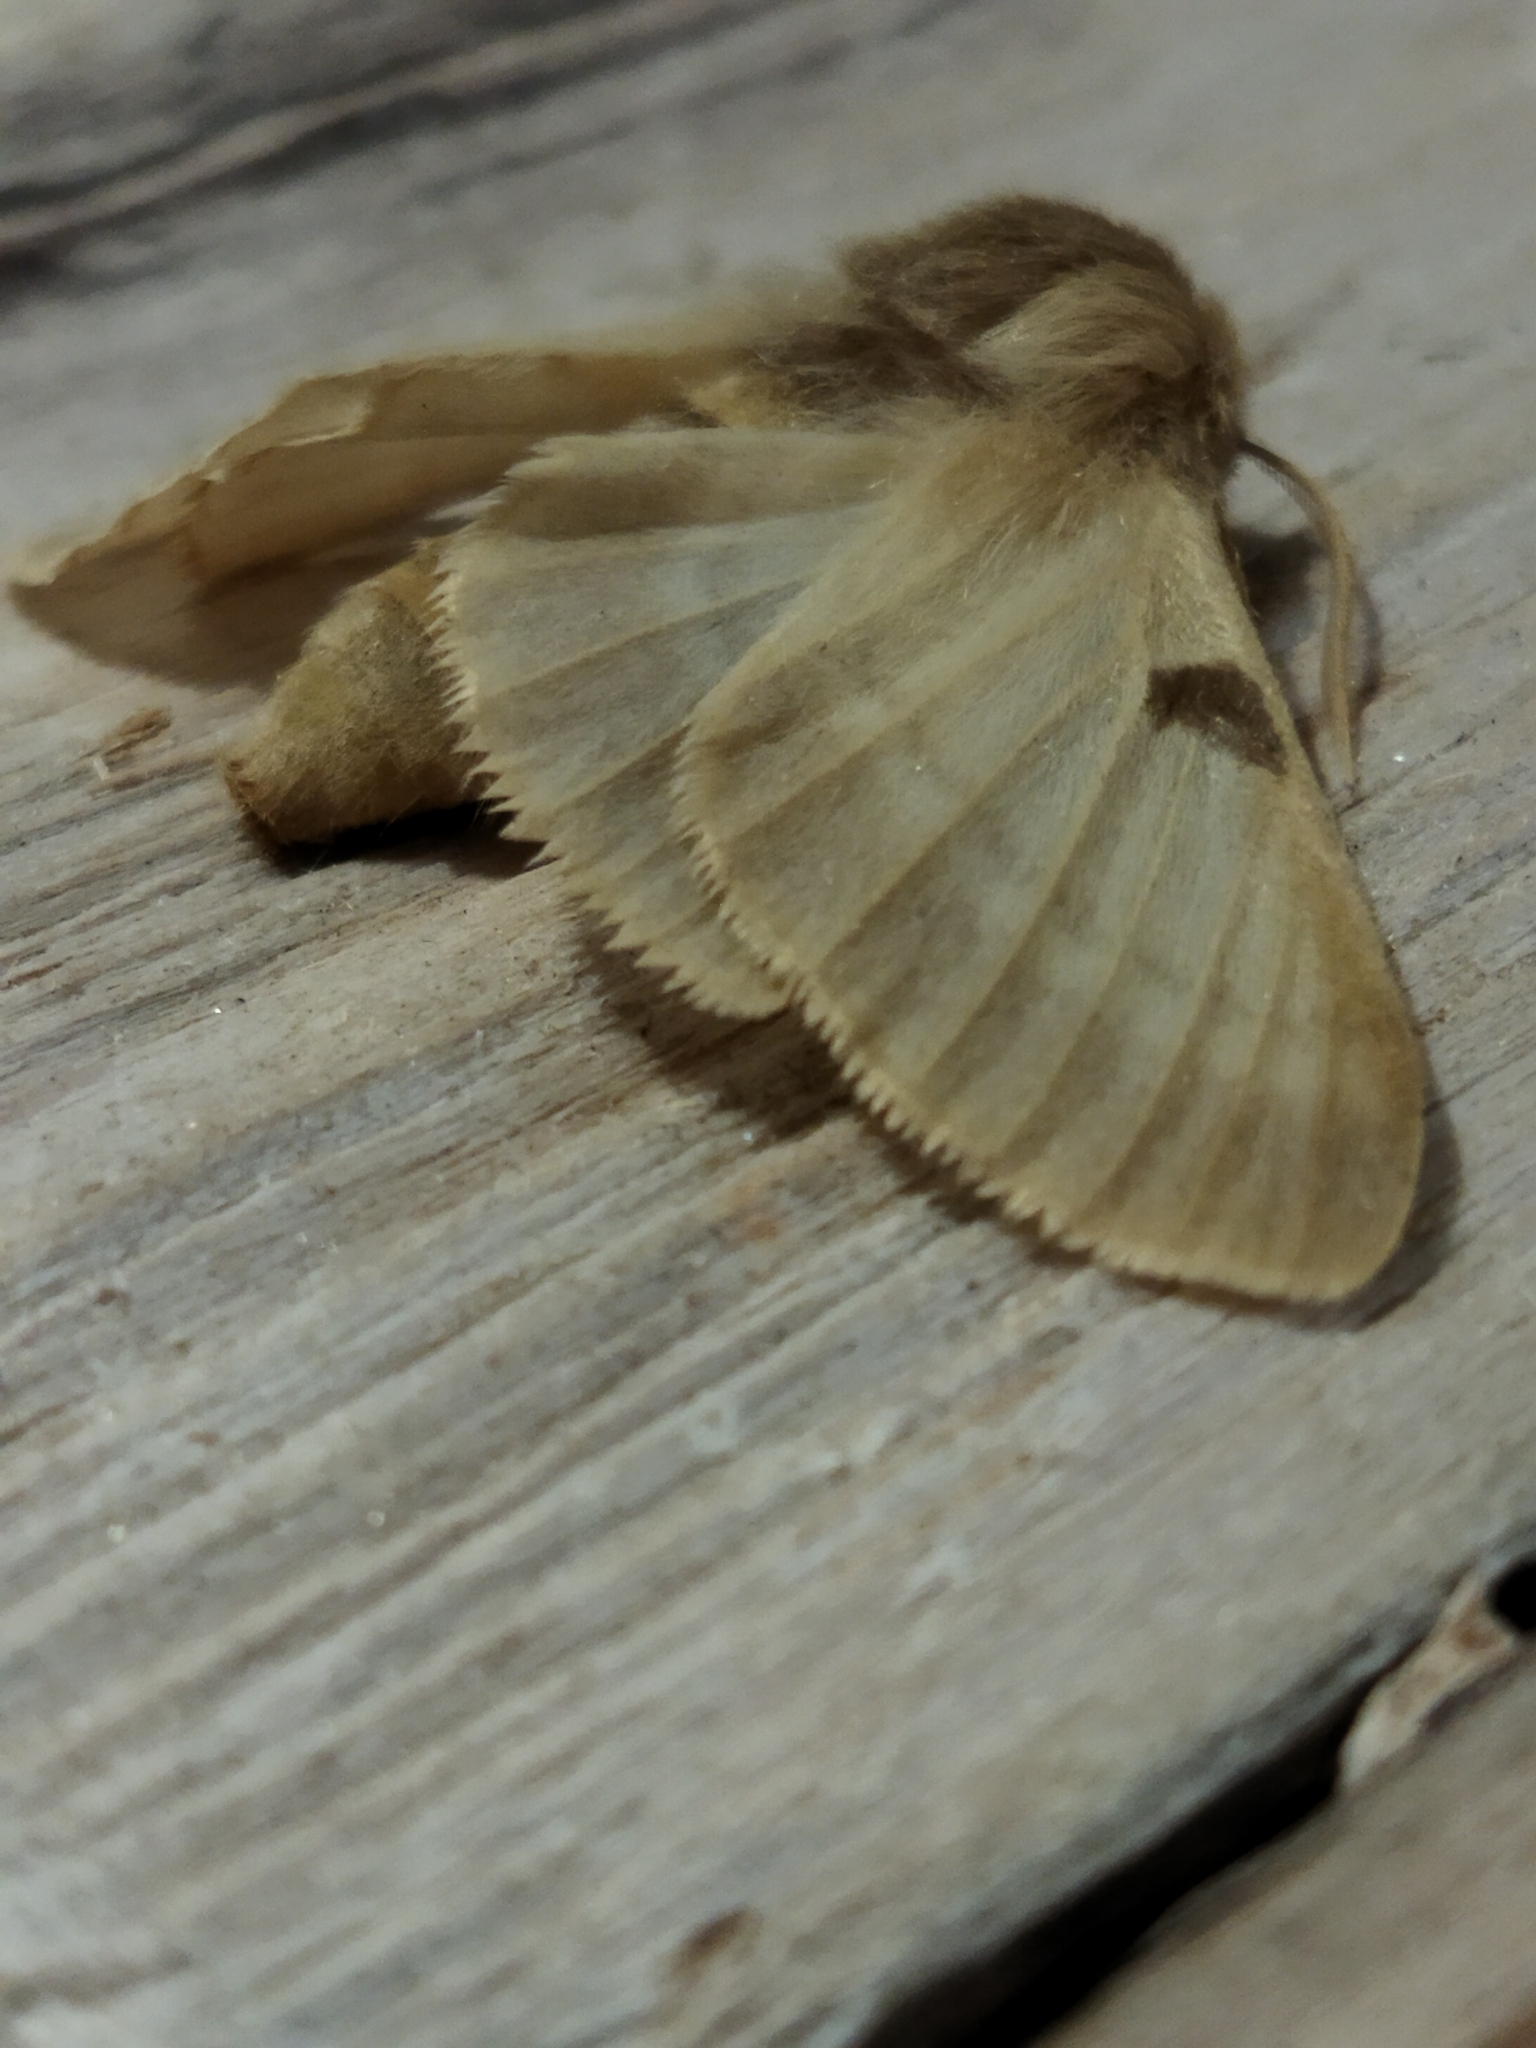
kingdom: Animalia
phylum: Arthropoda
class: Insecta
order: Lepidoptera
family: Brahmaeidae
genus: Lemonia
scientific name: Lemonia balcanica
